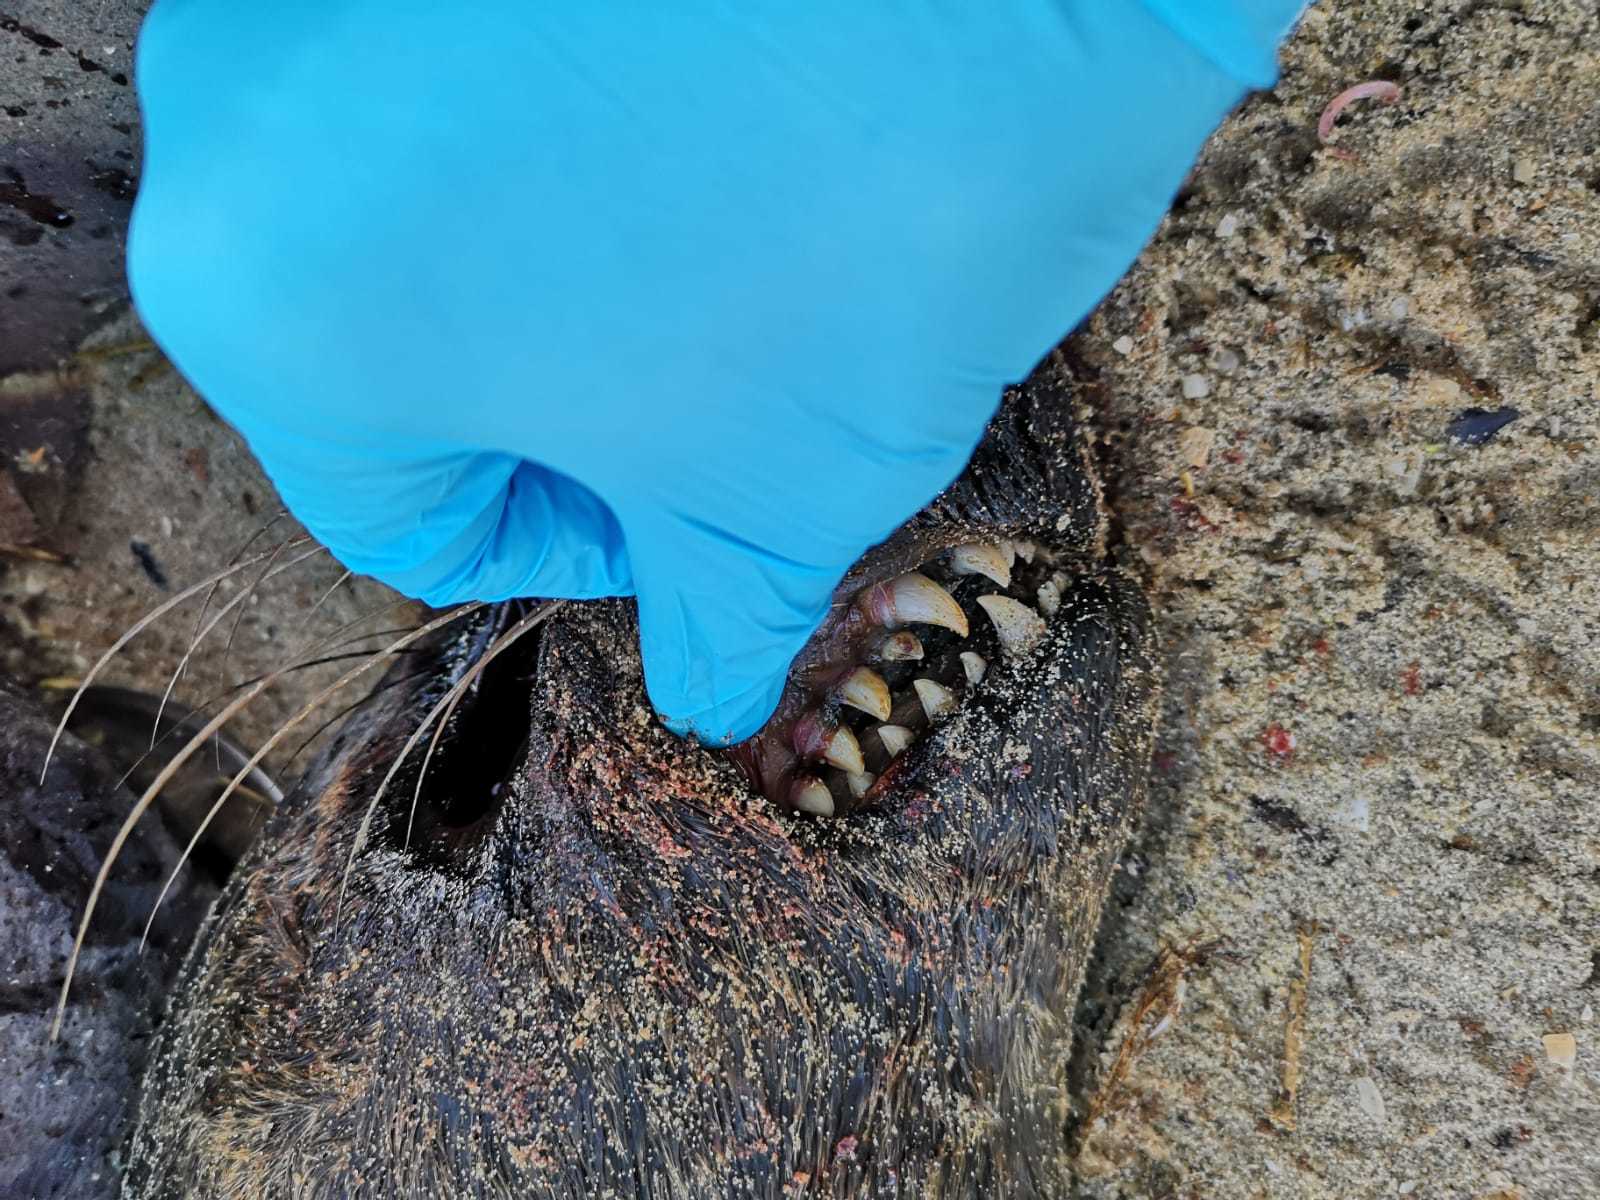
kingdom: Animalia
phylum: Chordata
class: Mammalia
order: Carnivora
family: Phocidae
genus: Halichoerus
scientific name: Halichoerus grypus
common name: Grey seal
